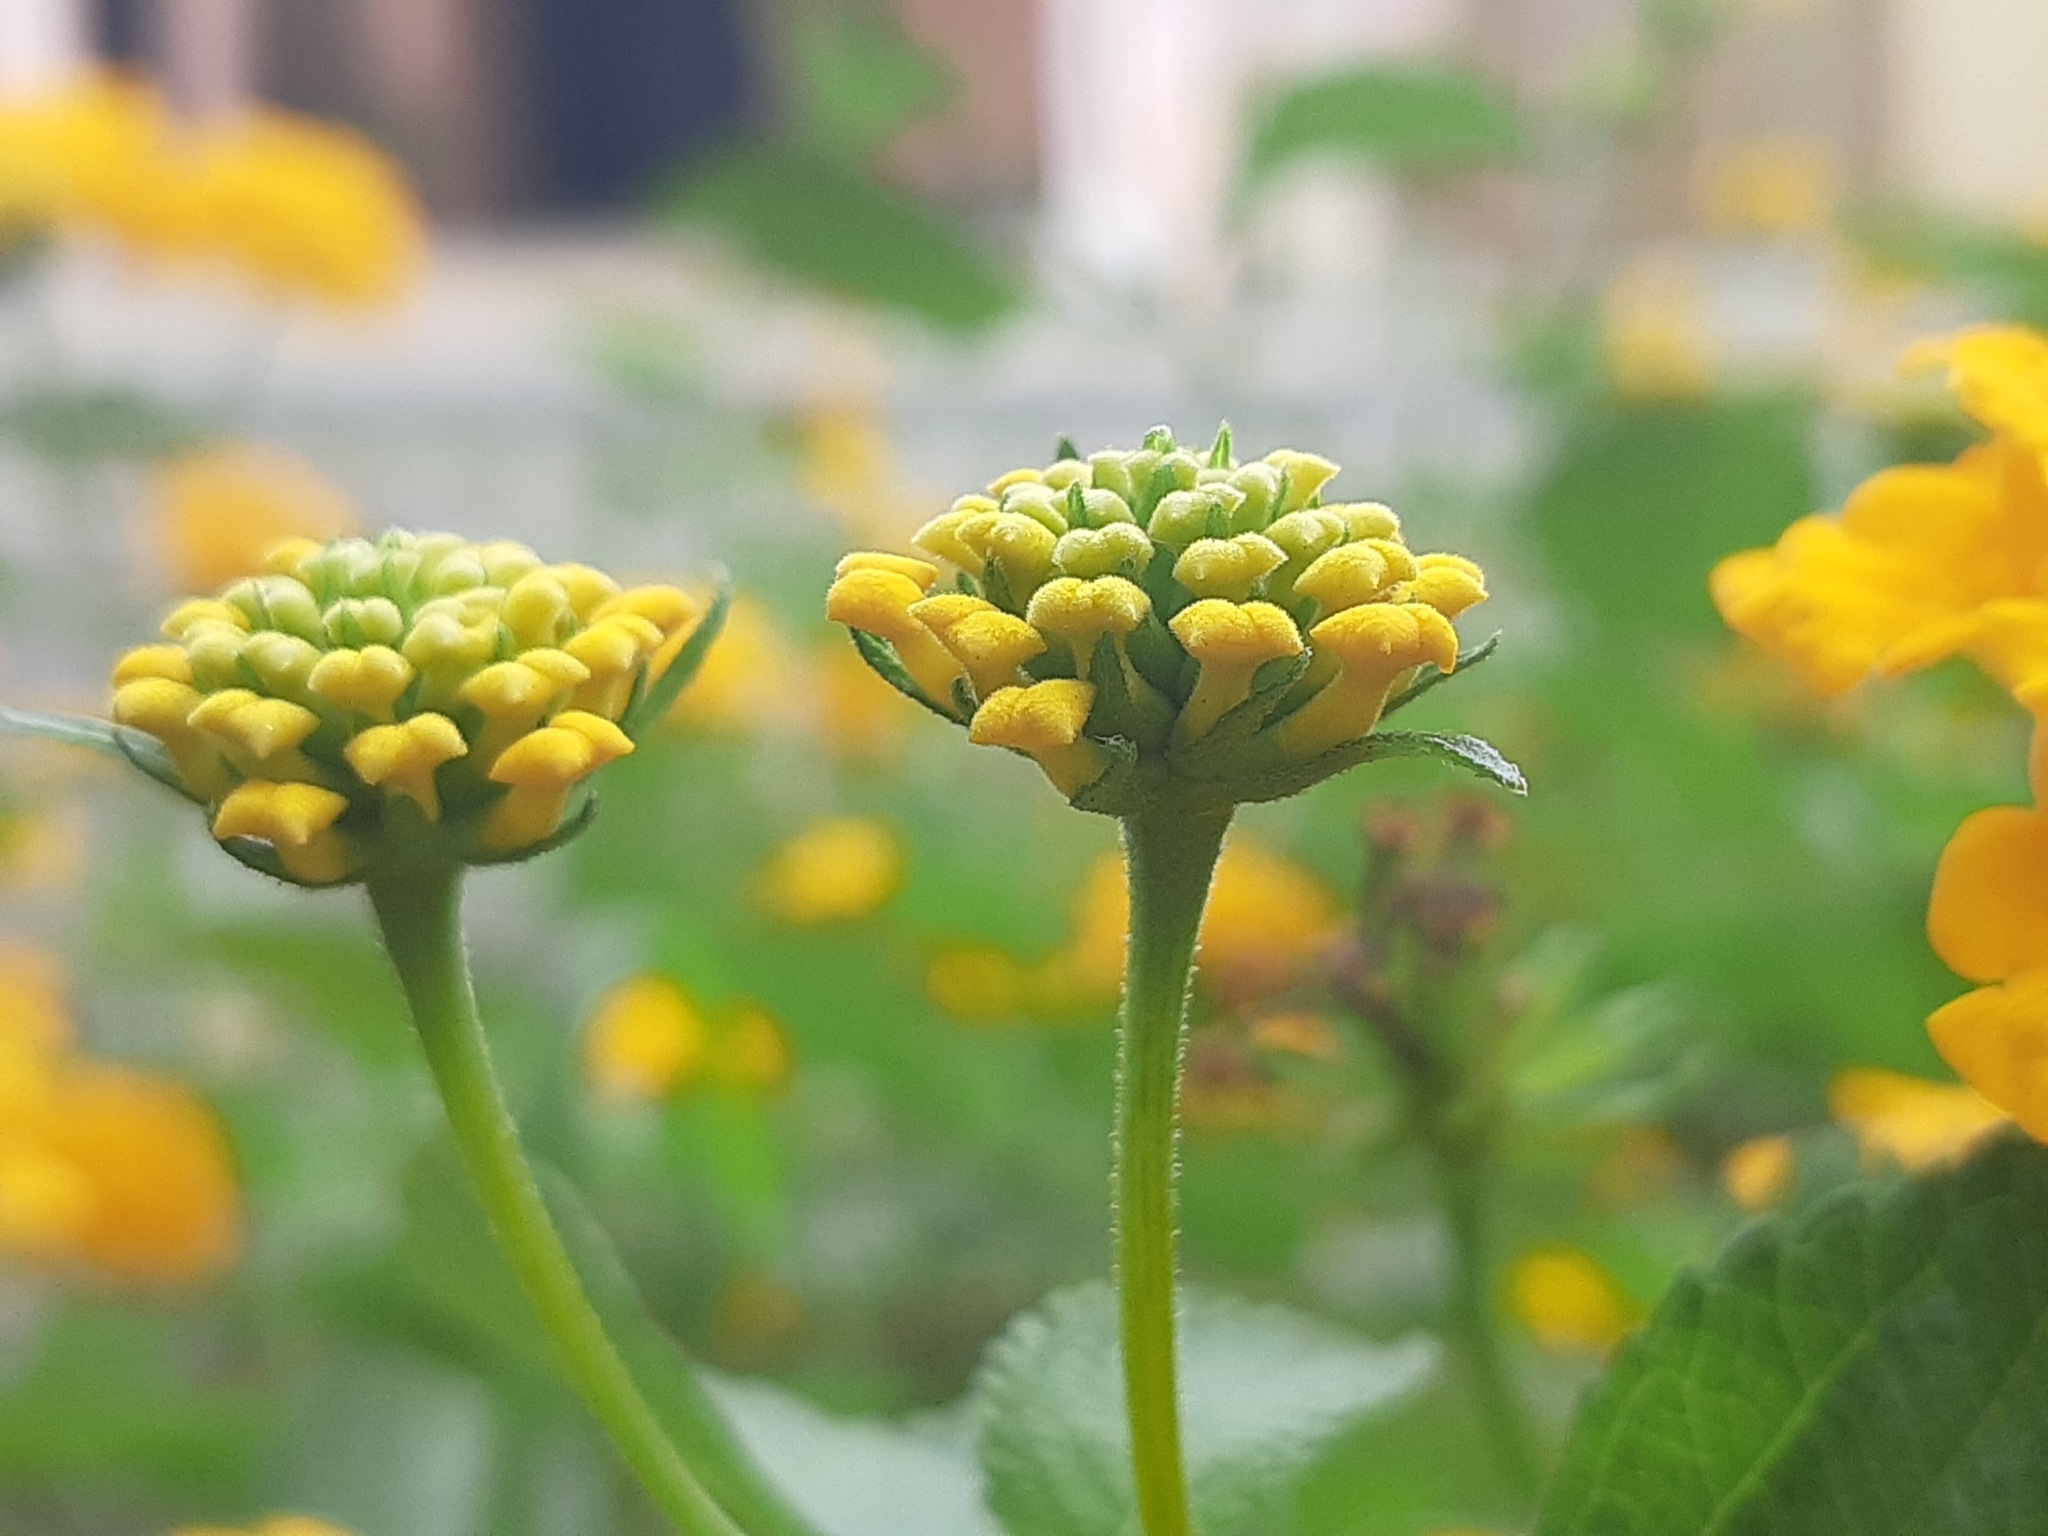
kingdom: Plantae
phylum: Tracheophyta
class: Magnoliopsida
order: Lamiales
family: Verbenaceae
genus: Lantana
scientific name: Lantana camara
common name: Lantana
